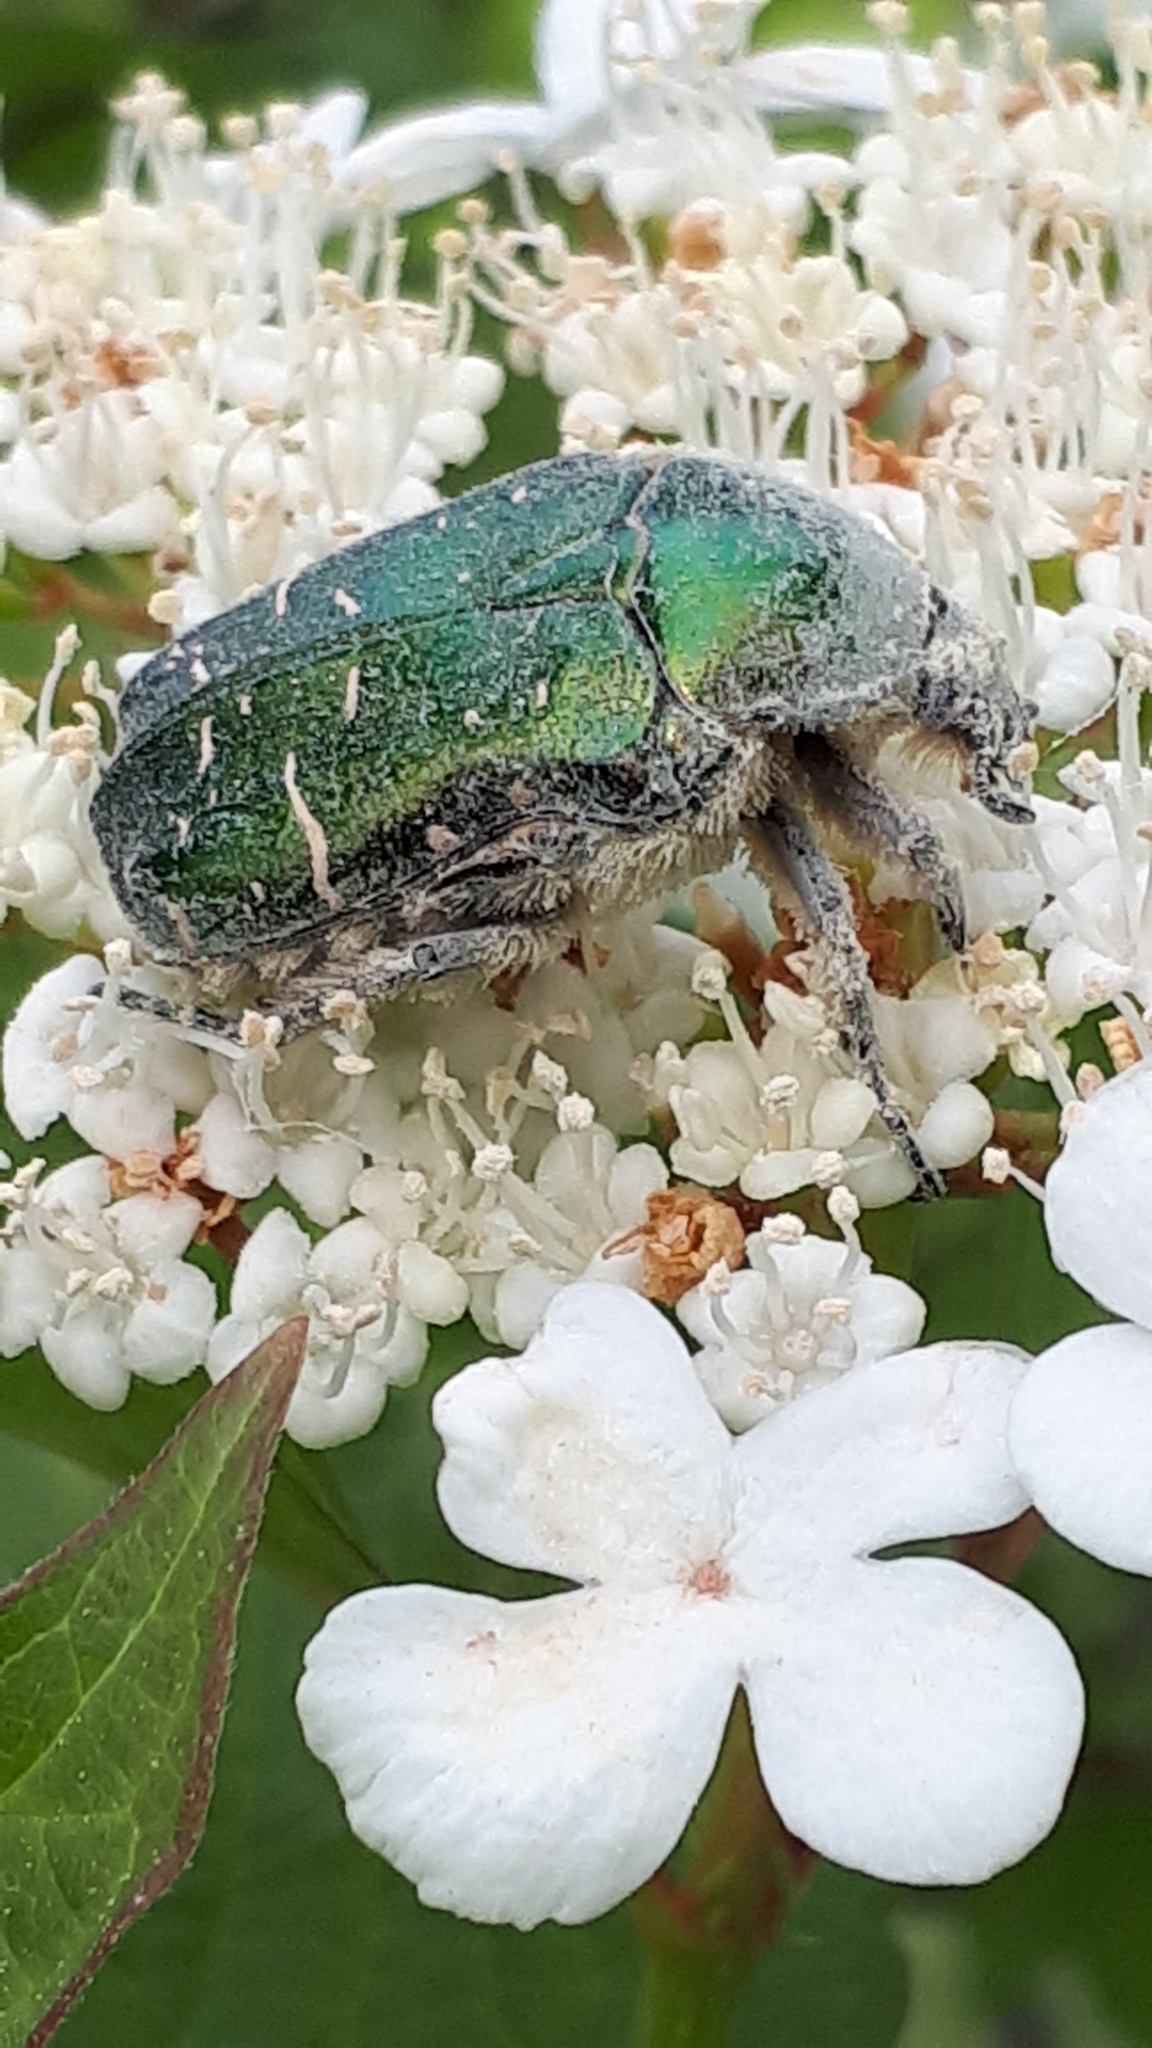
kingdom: Animalia
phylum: Arthropoda
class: Insecta
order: Coleoptera
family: Scarabaeidae
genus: Cetonia
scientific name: Cetonia aurata
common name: Rose chafer
